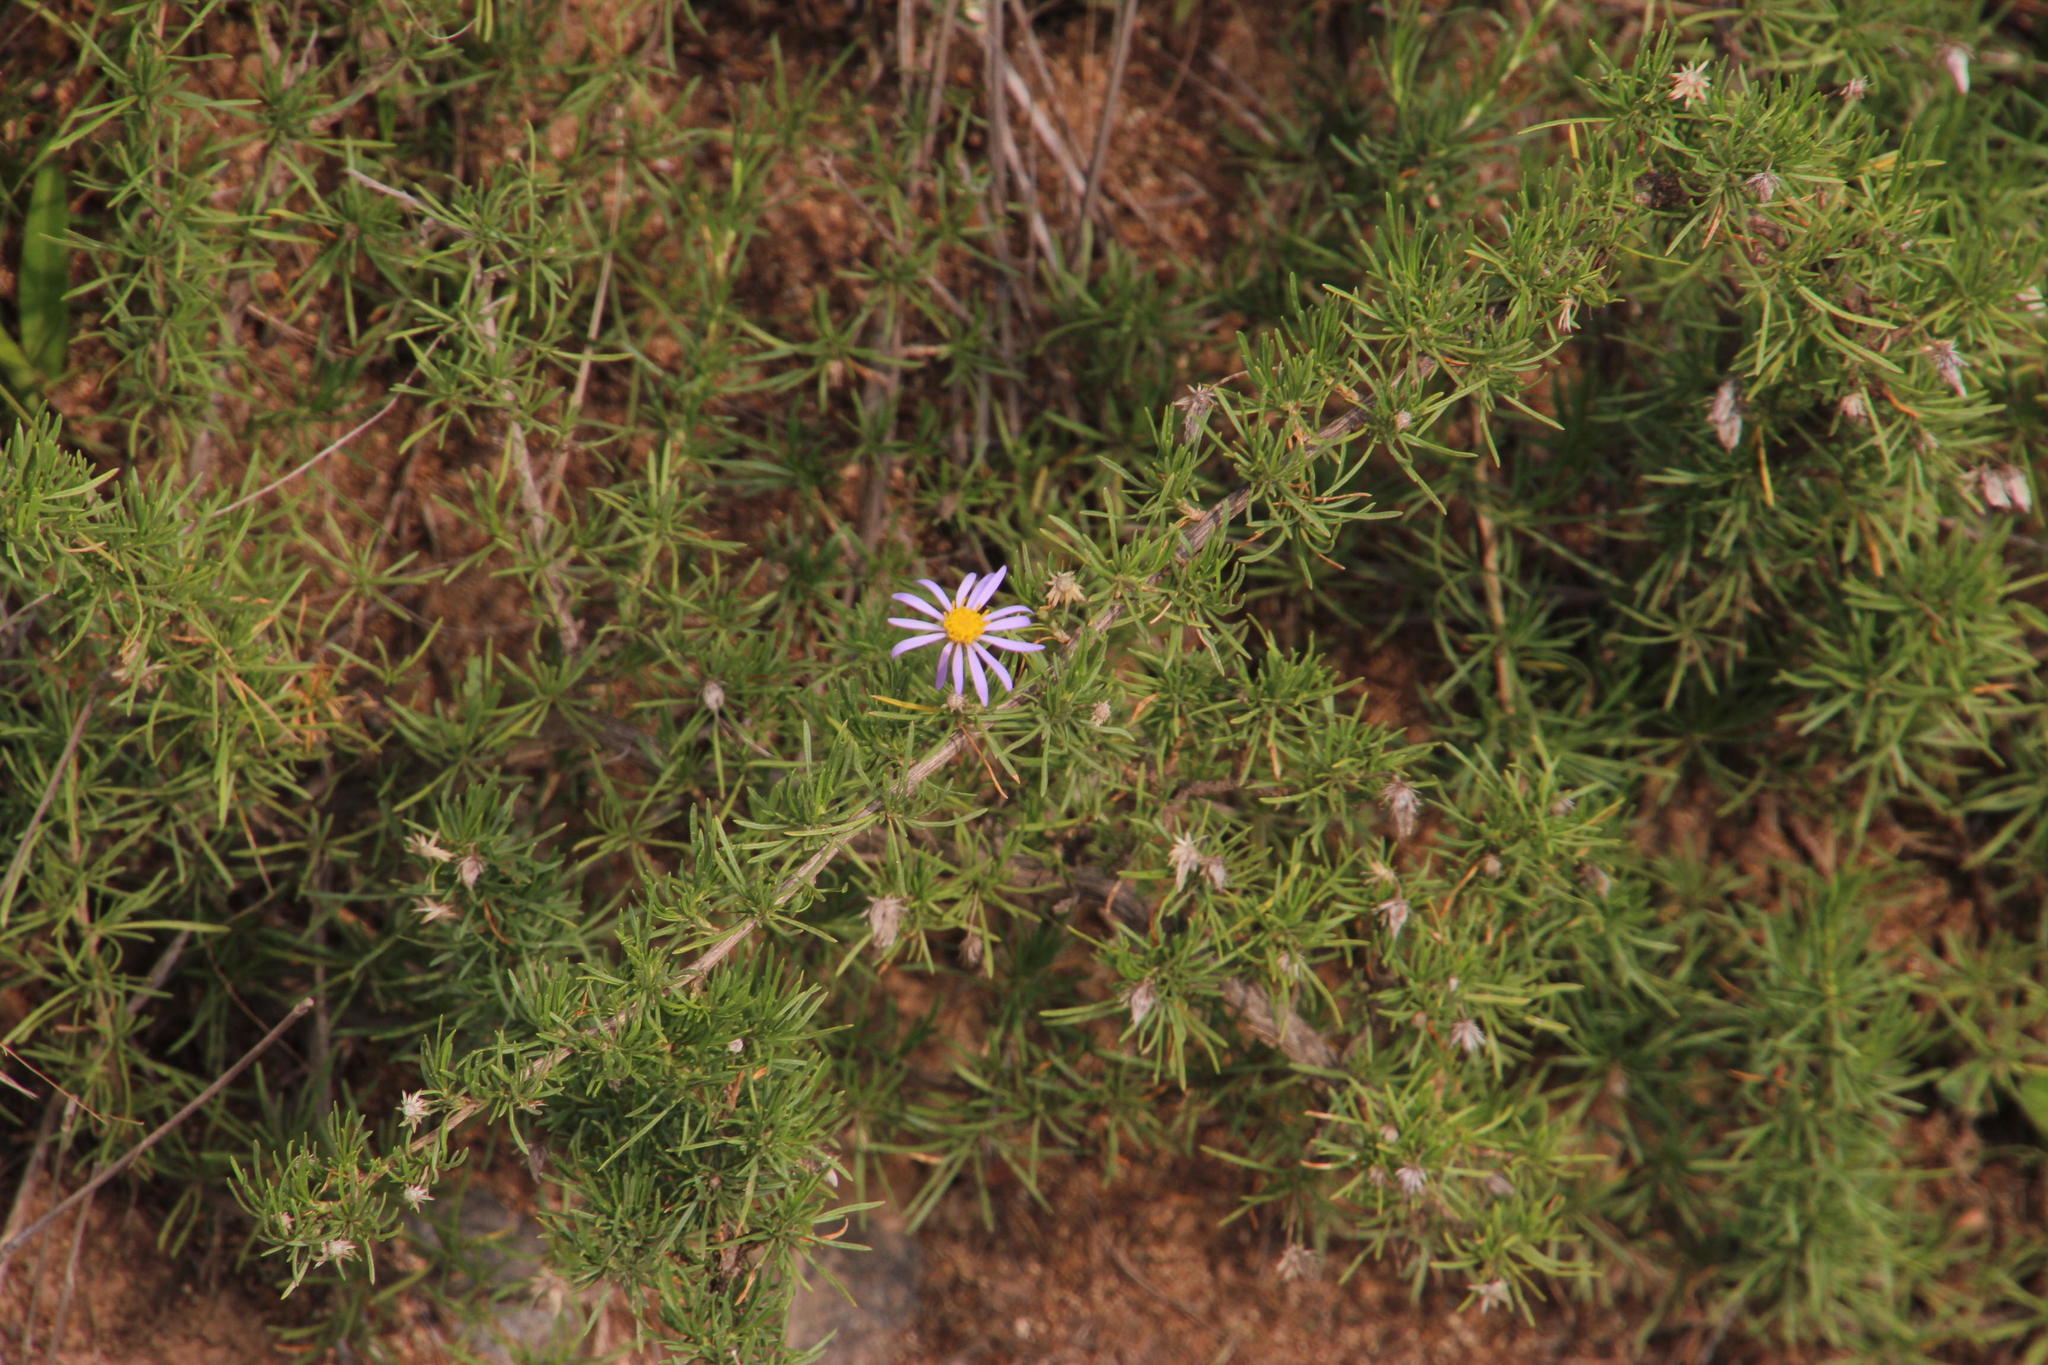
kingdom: Plantae
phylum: Tracheophyta
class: Magnoliopsida
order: Asterales
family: Asteraceae
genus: Felicia
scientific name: Felicia filifolia
